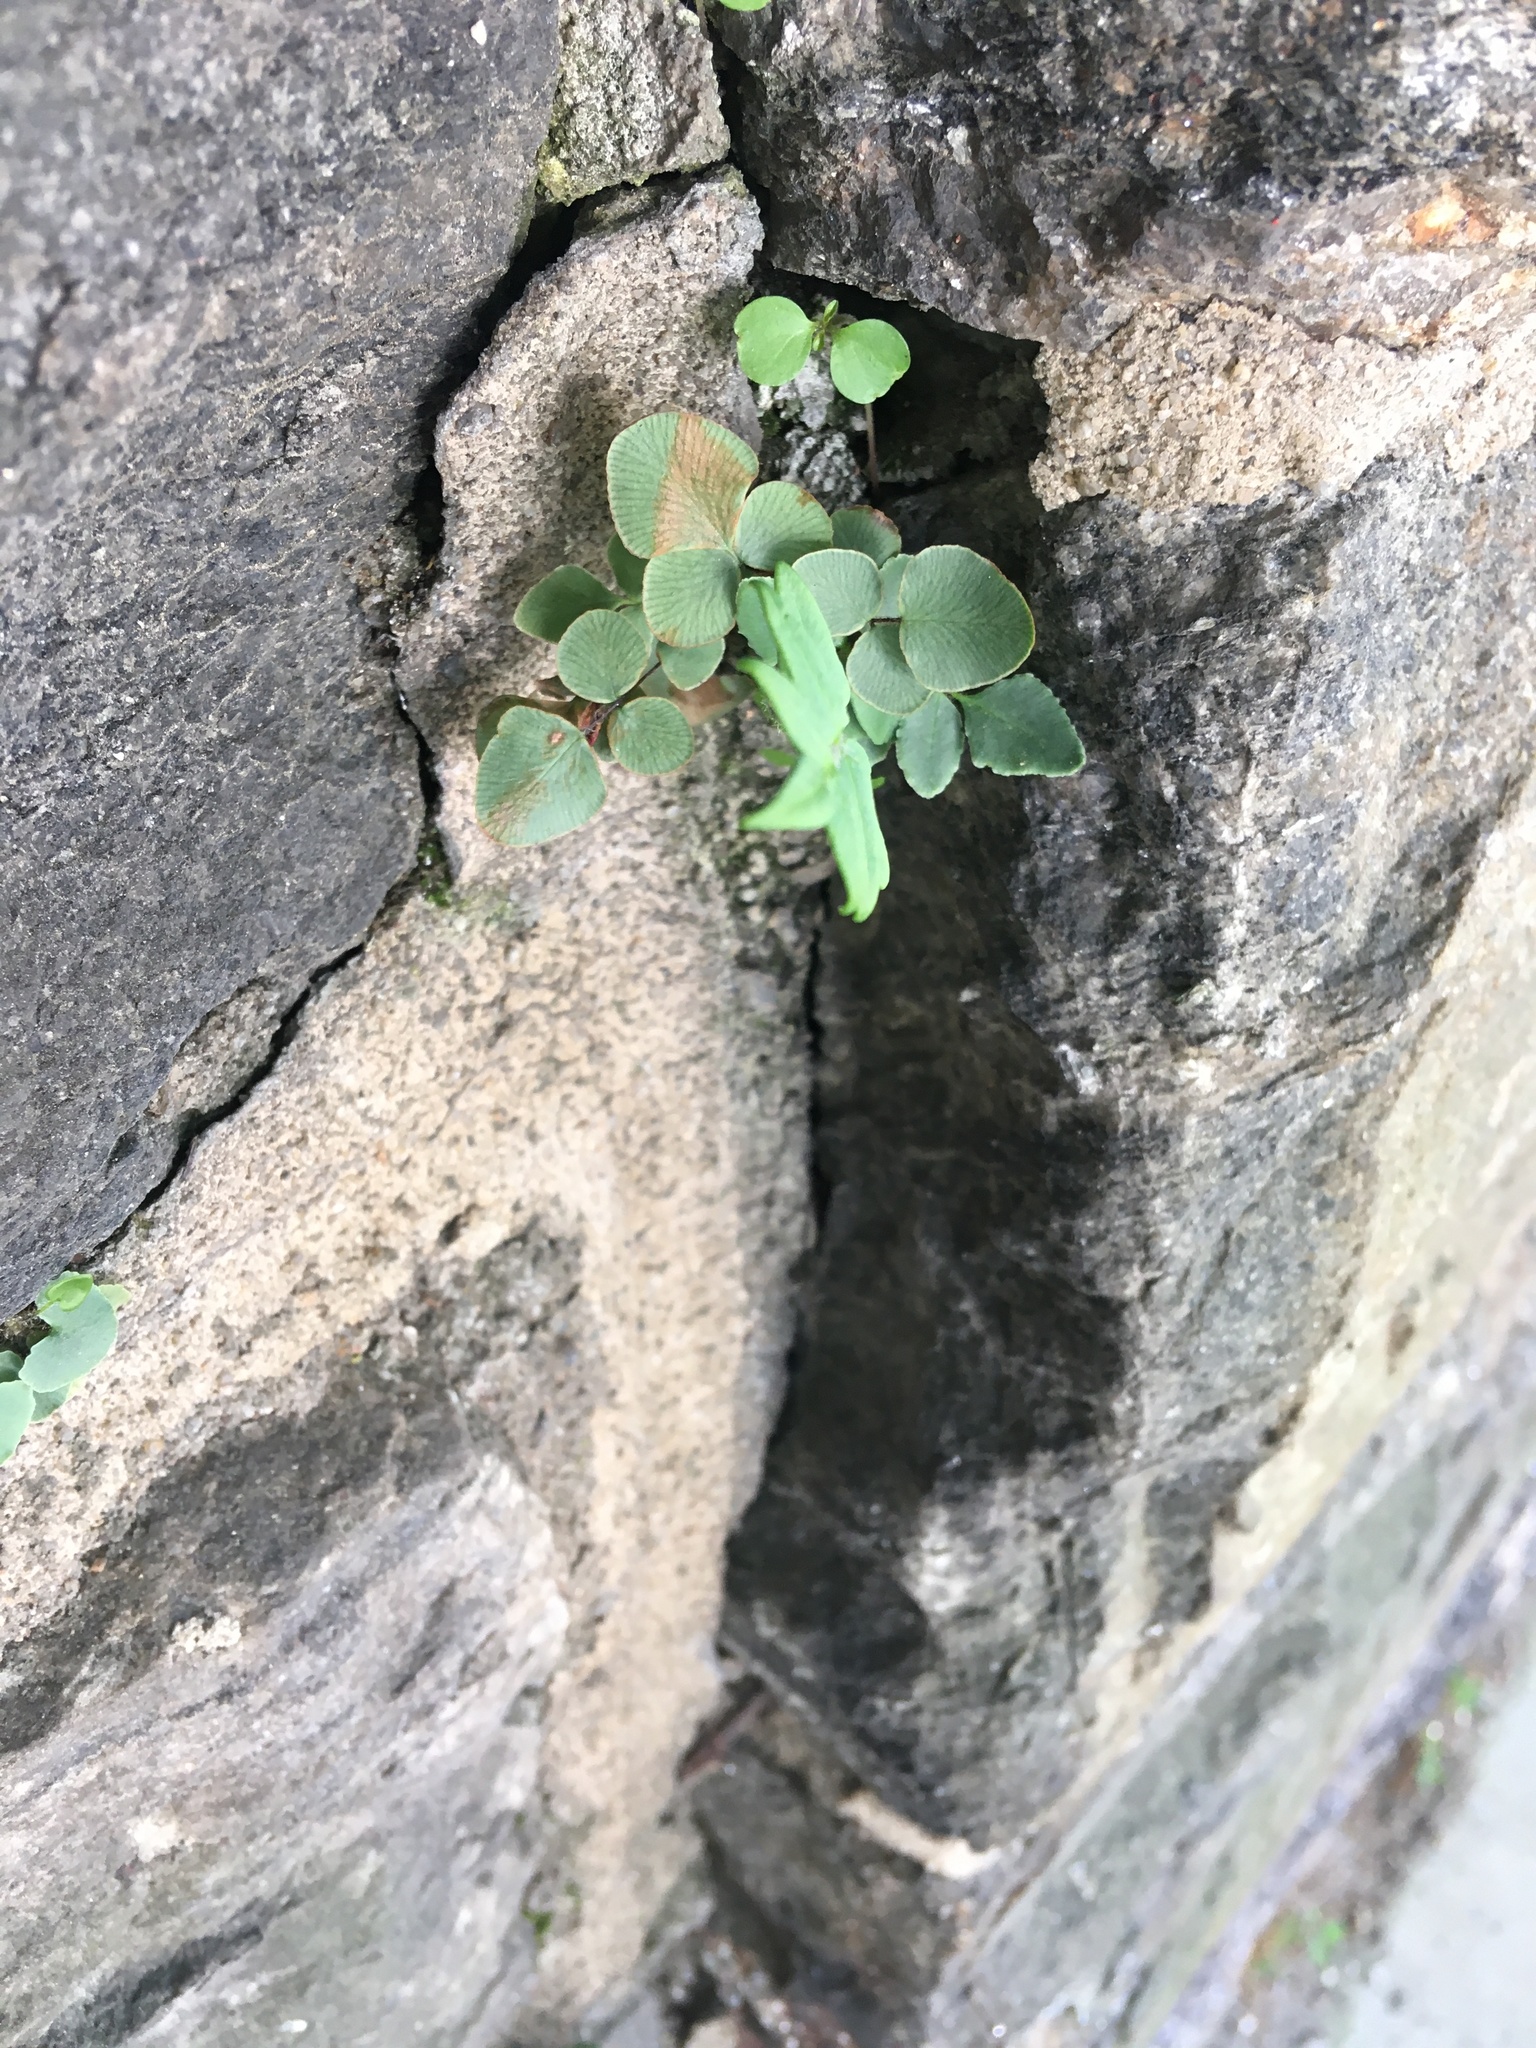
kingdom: Plantae
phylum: Tracheophyta
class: Polypodiopsida
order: Polypodiales
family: Pteridaceae
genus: Pellaea
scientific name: Pellaea atropurpurea
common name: Hairy cliffbrake
